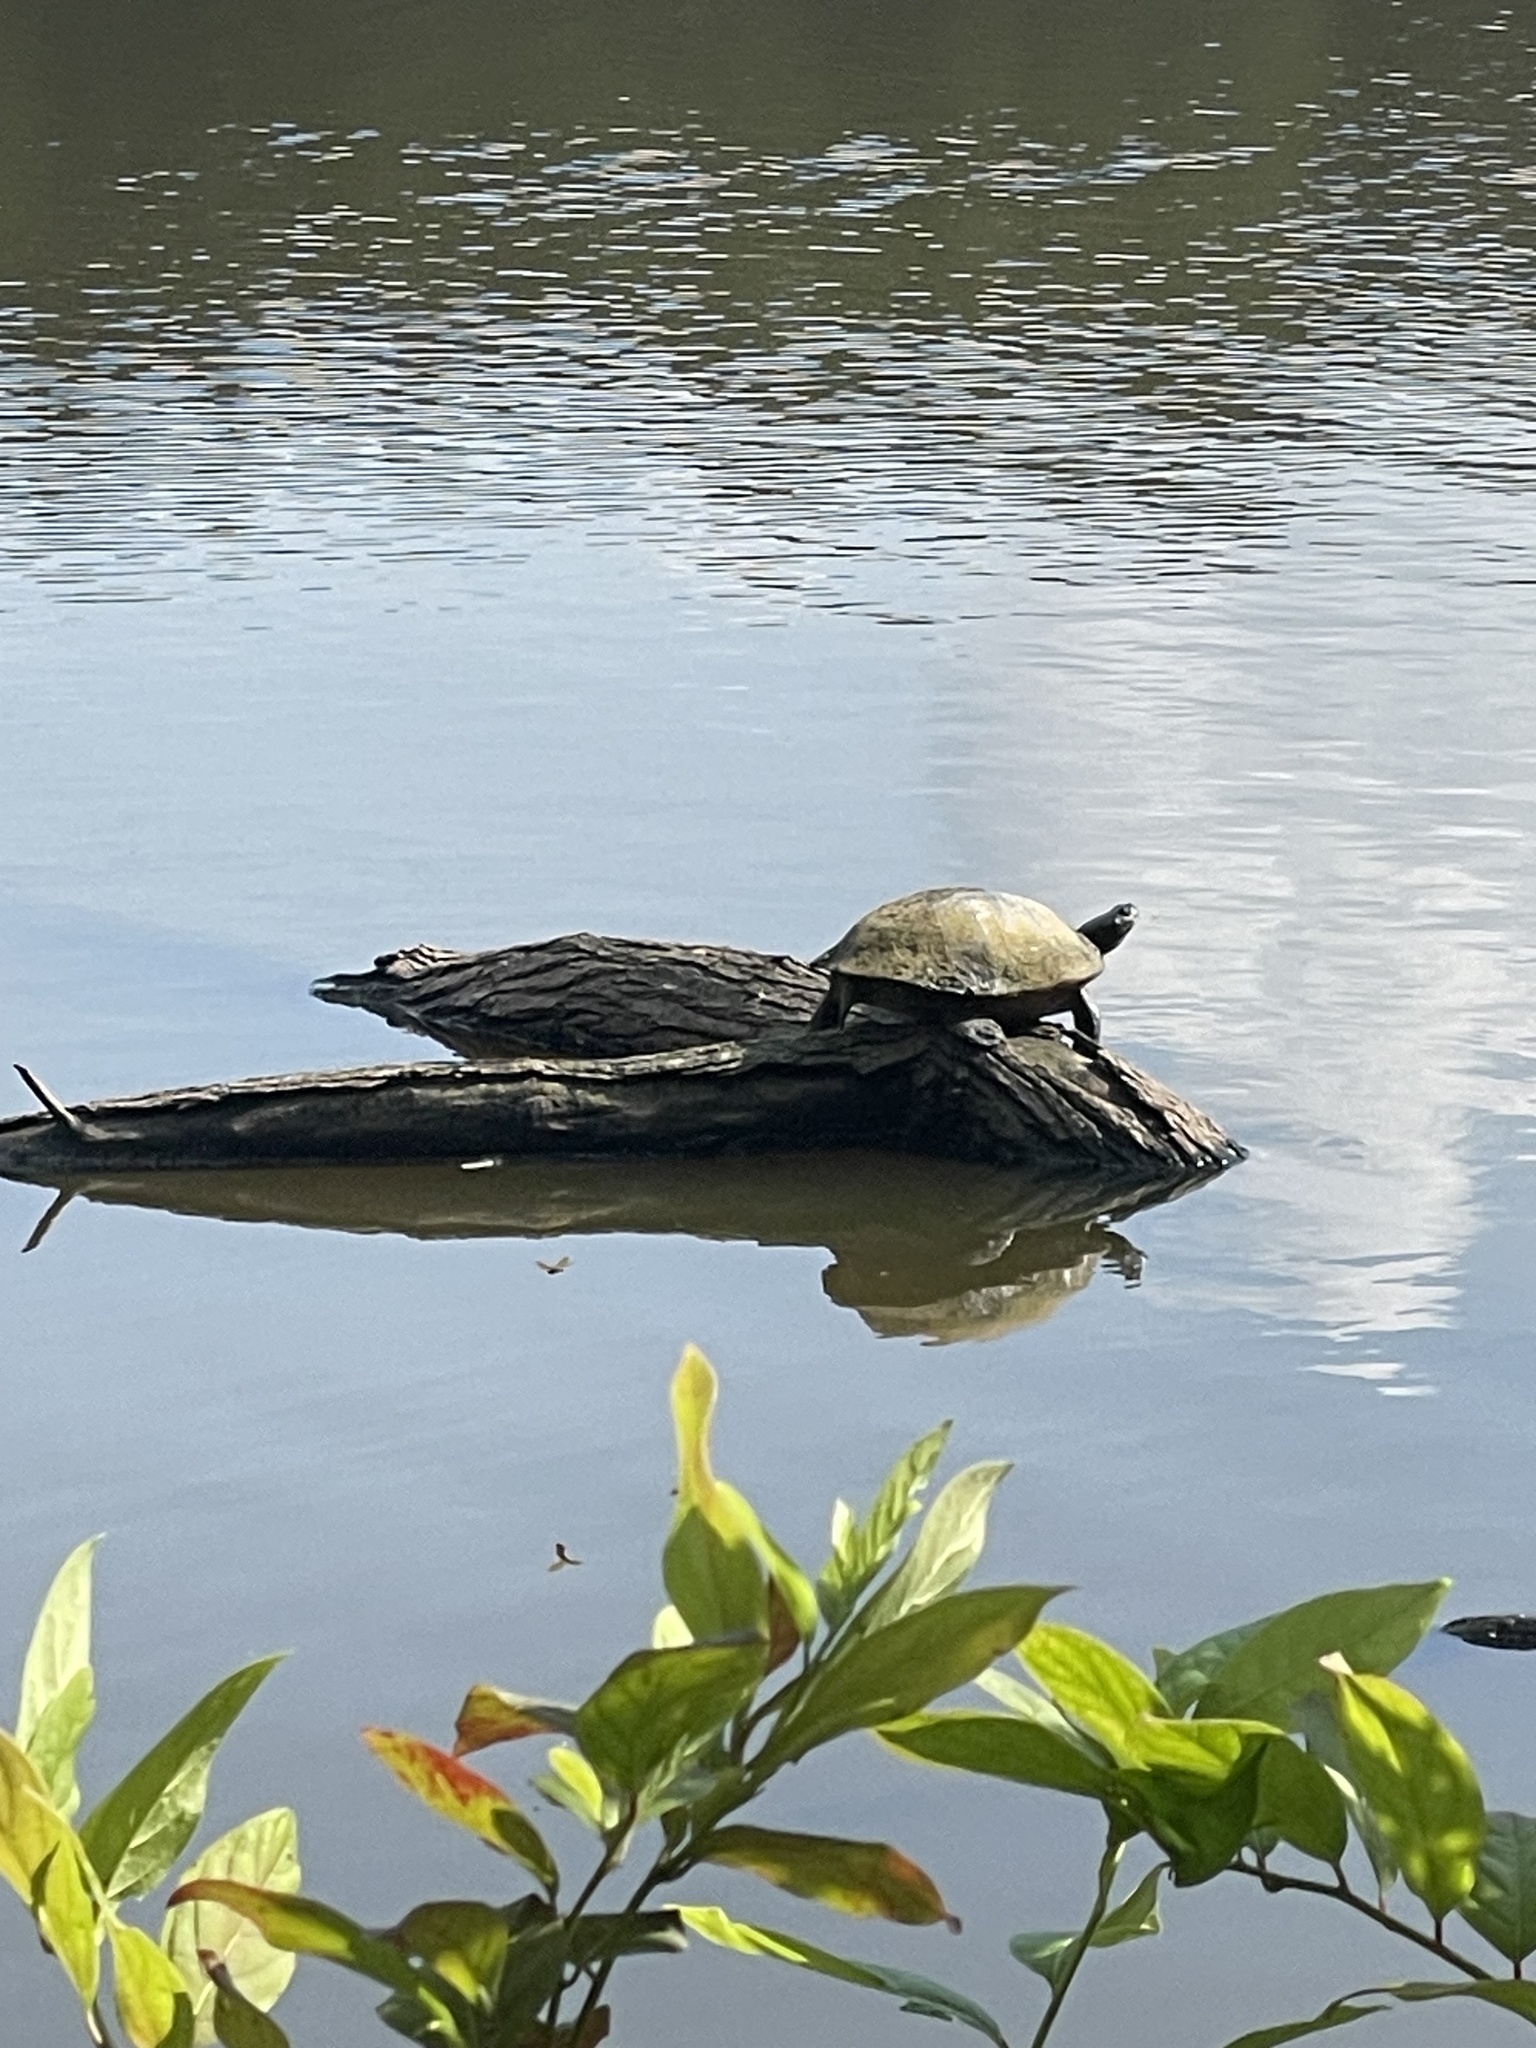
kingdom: Animalia
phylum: Chordata
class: Testudines
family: Emydidae
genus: Pseudemys
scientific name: Pseudemys rubriventris
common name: American red-bellied turtle
